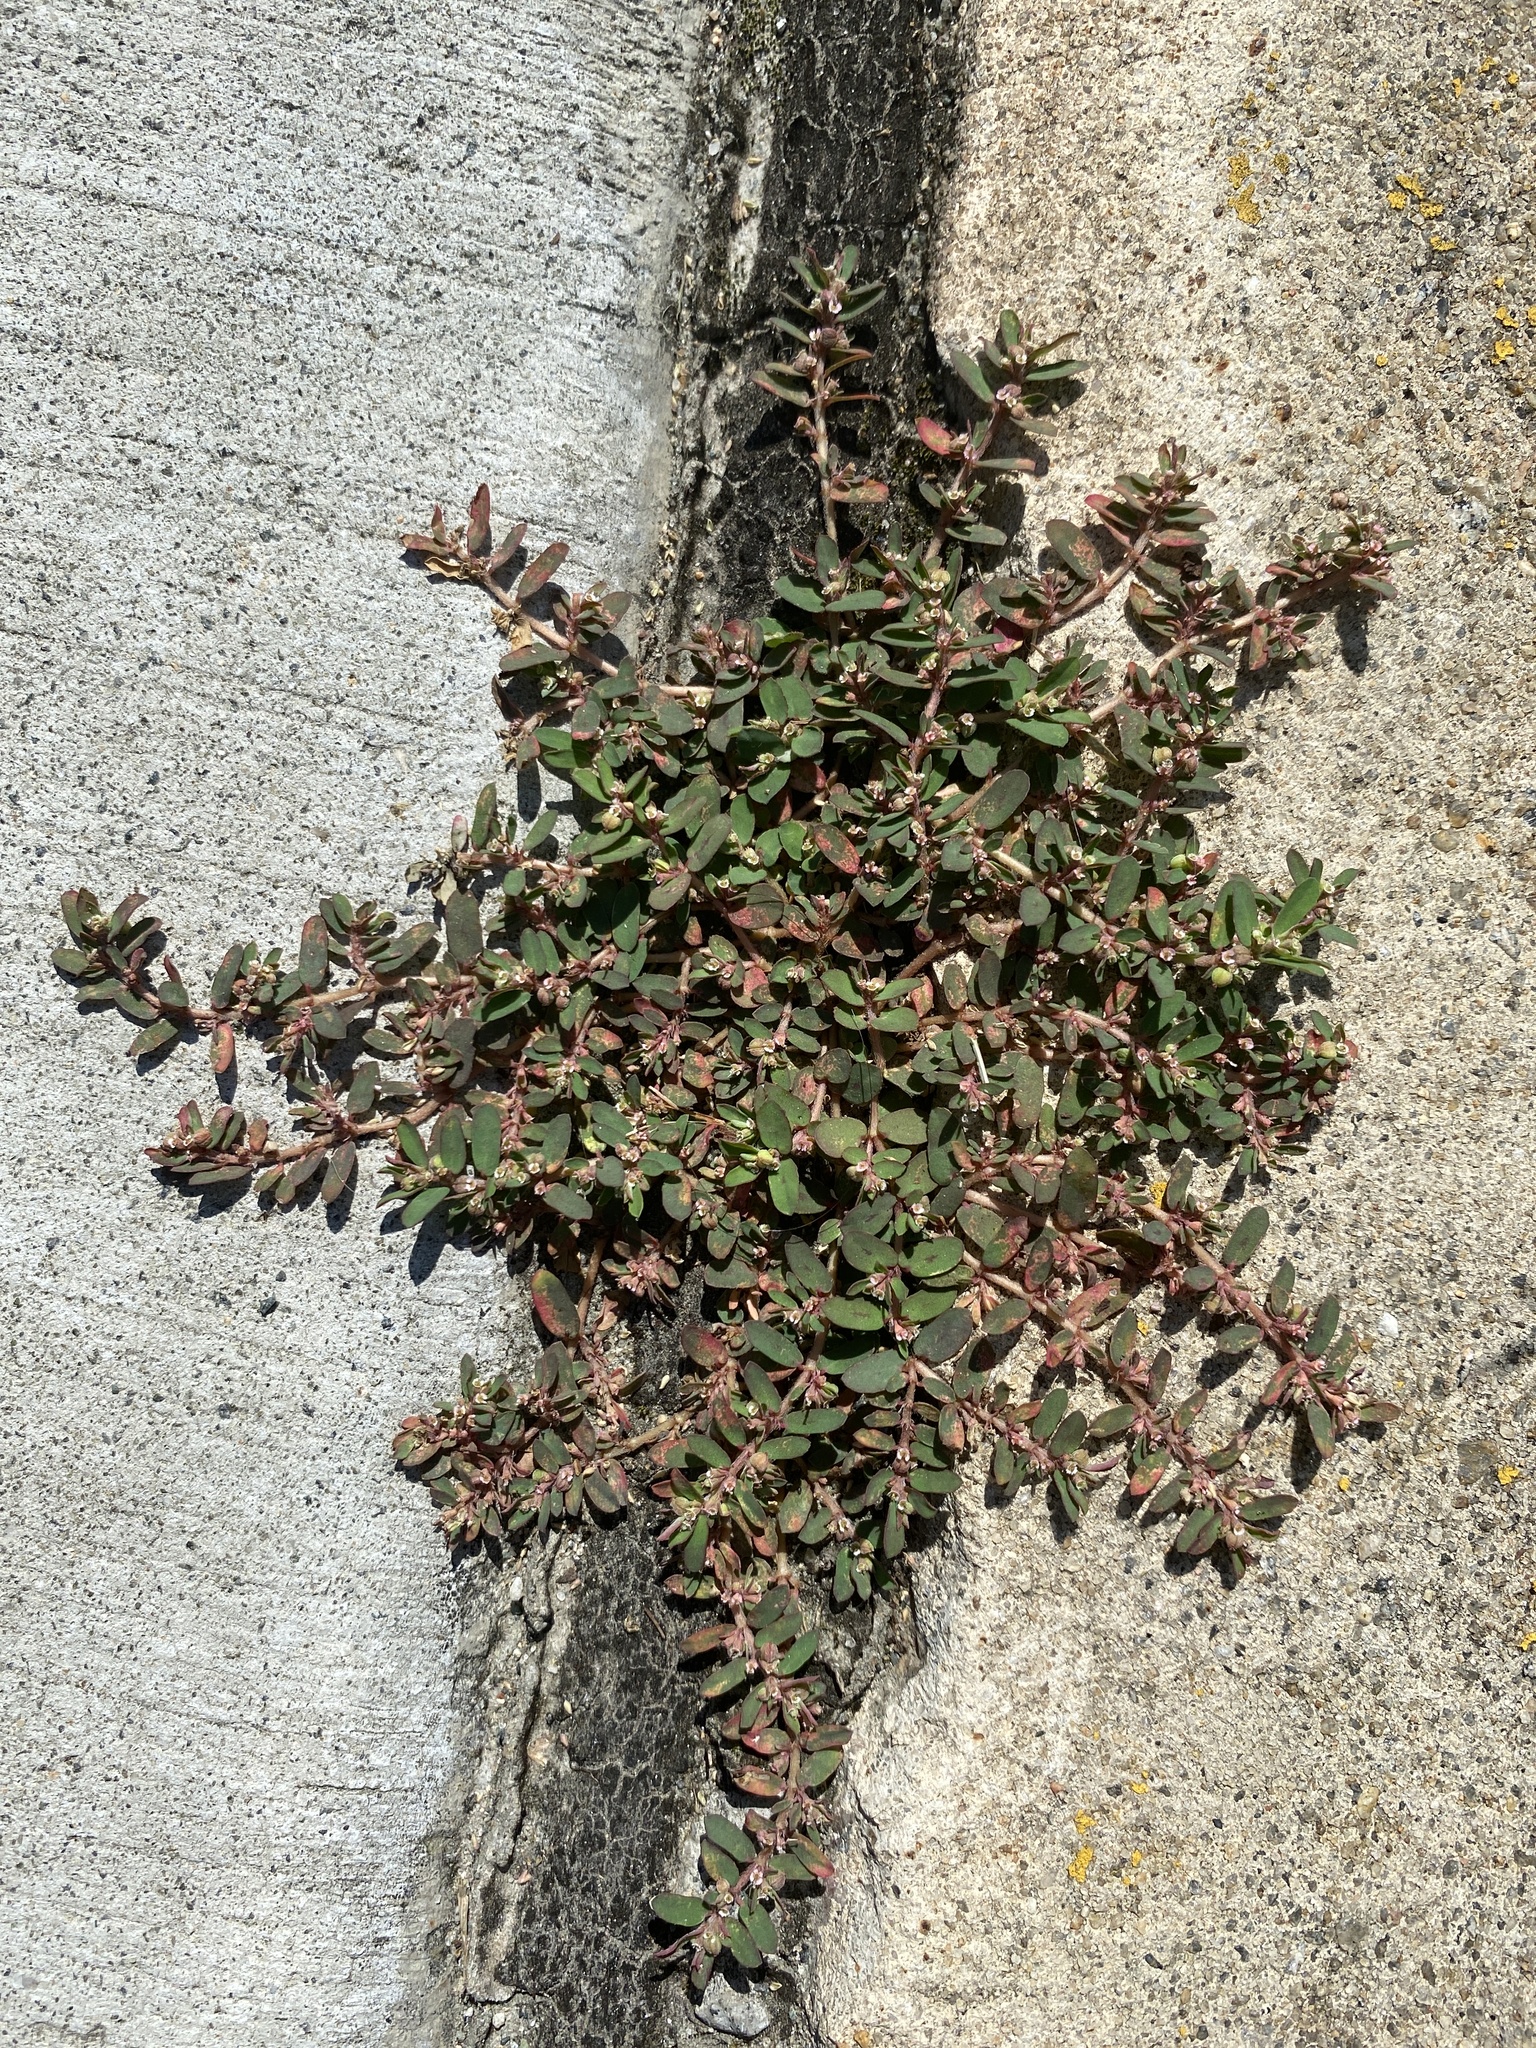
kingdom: Plantae
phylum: Tracheophyta
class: Magnoliopsida
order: Malpighiales
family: Euphorbiaceae
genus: Euphorbia
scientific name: Euphorbia maculata
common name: Spotted spurge
